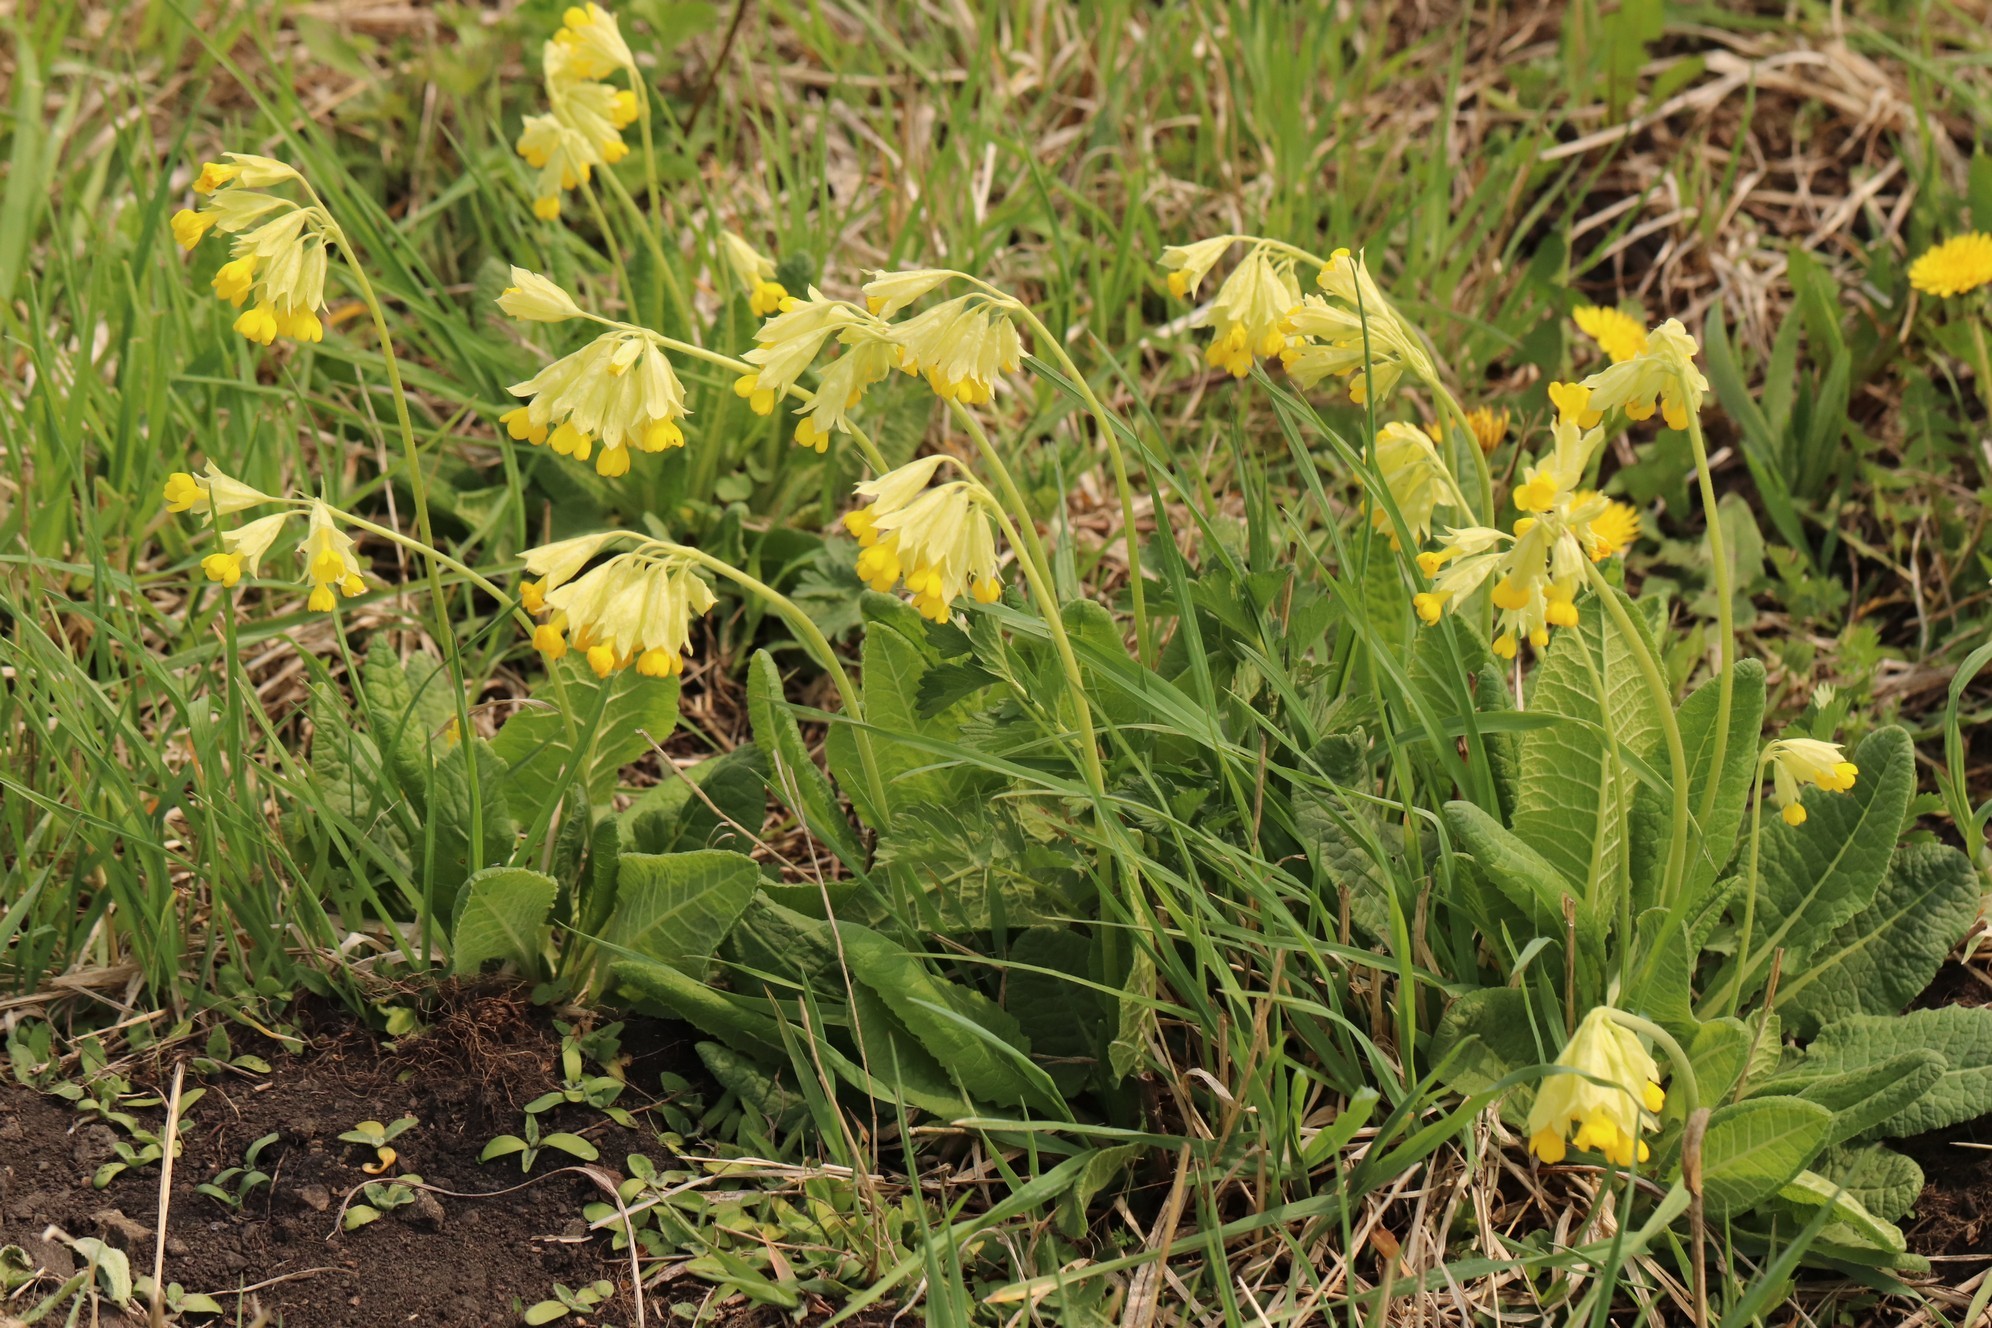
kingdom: Plantae
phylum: Tracheophyta
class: Magnoliopsida
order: Ericales
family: Primulaceae
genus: Primula
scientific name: Primula veris
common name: Cowslip
